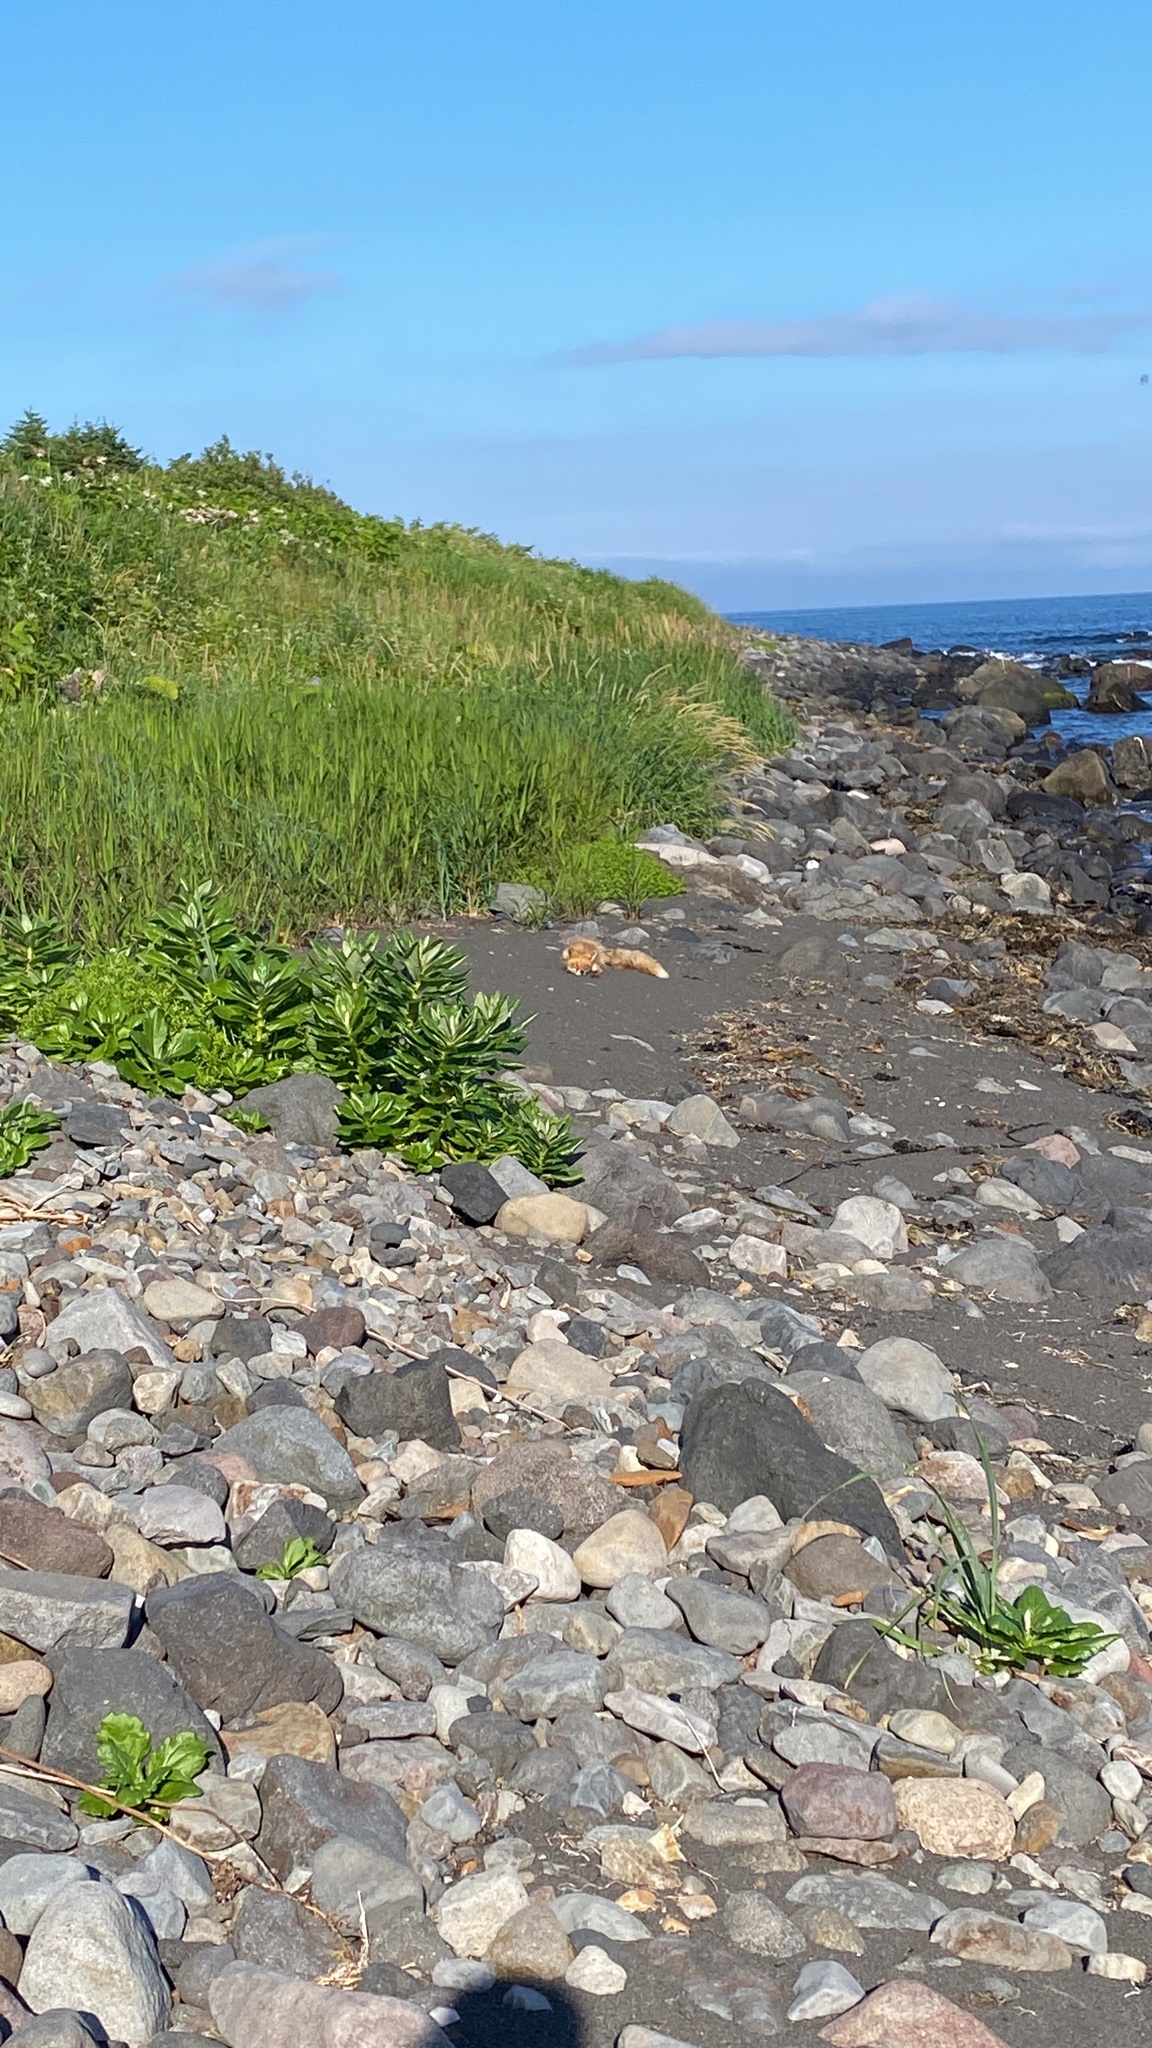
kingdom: Animalia
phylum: Chordata
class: Mammalia
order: Carnivora
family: Canidae
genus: Vulpes
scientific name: Vulpes vulpes
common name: Red fox
